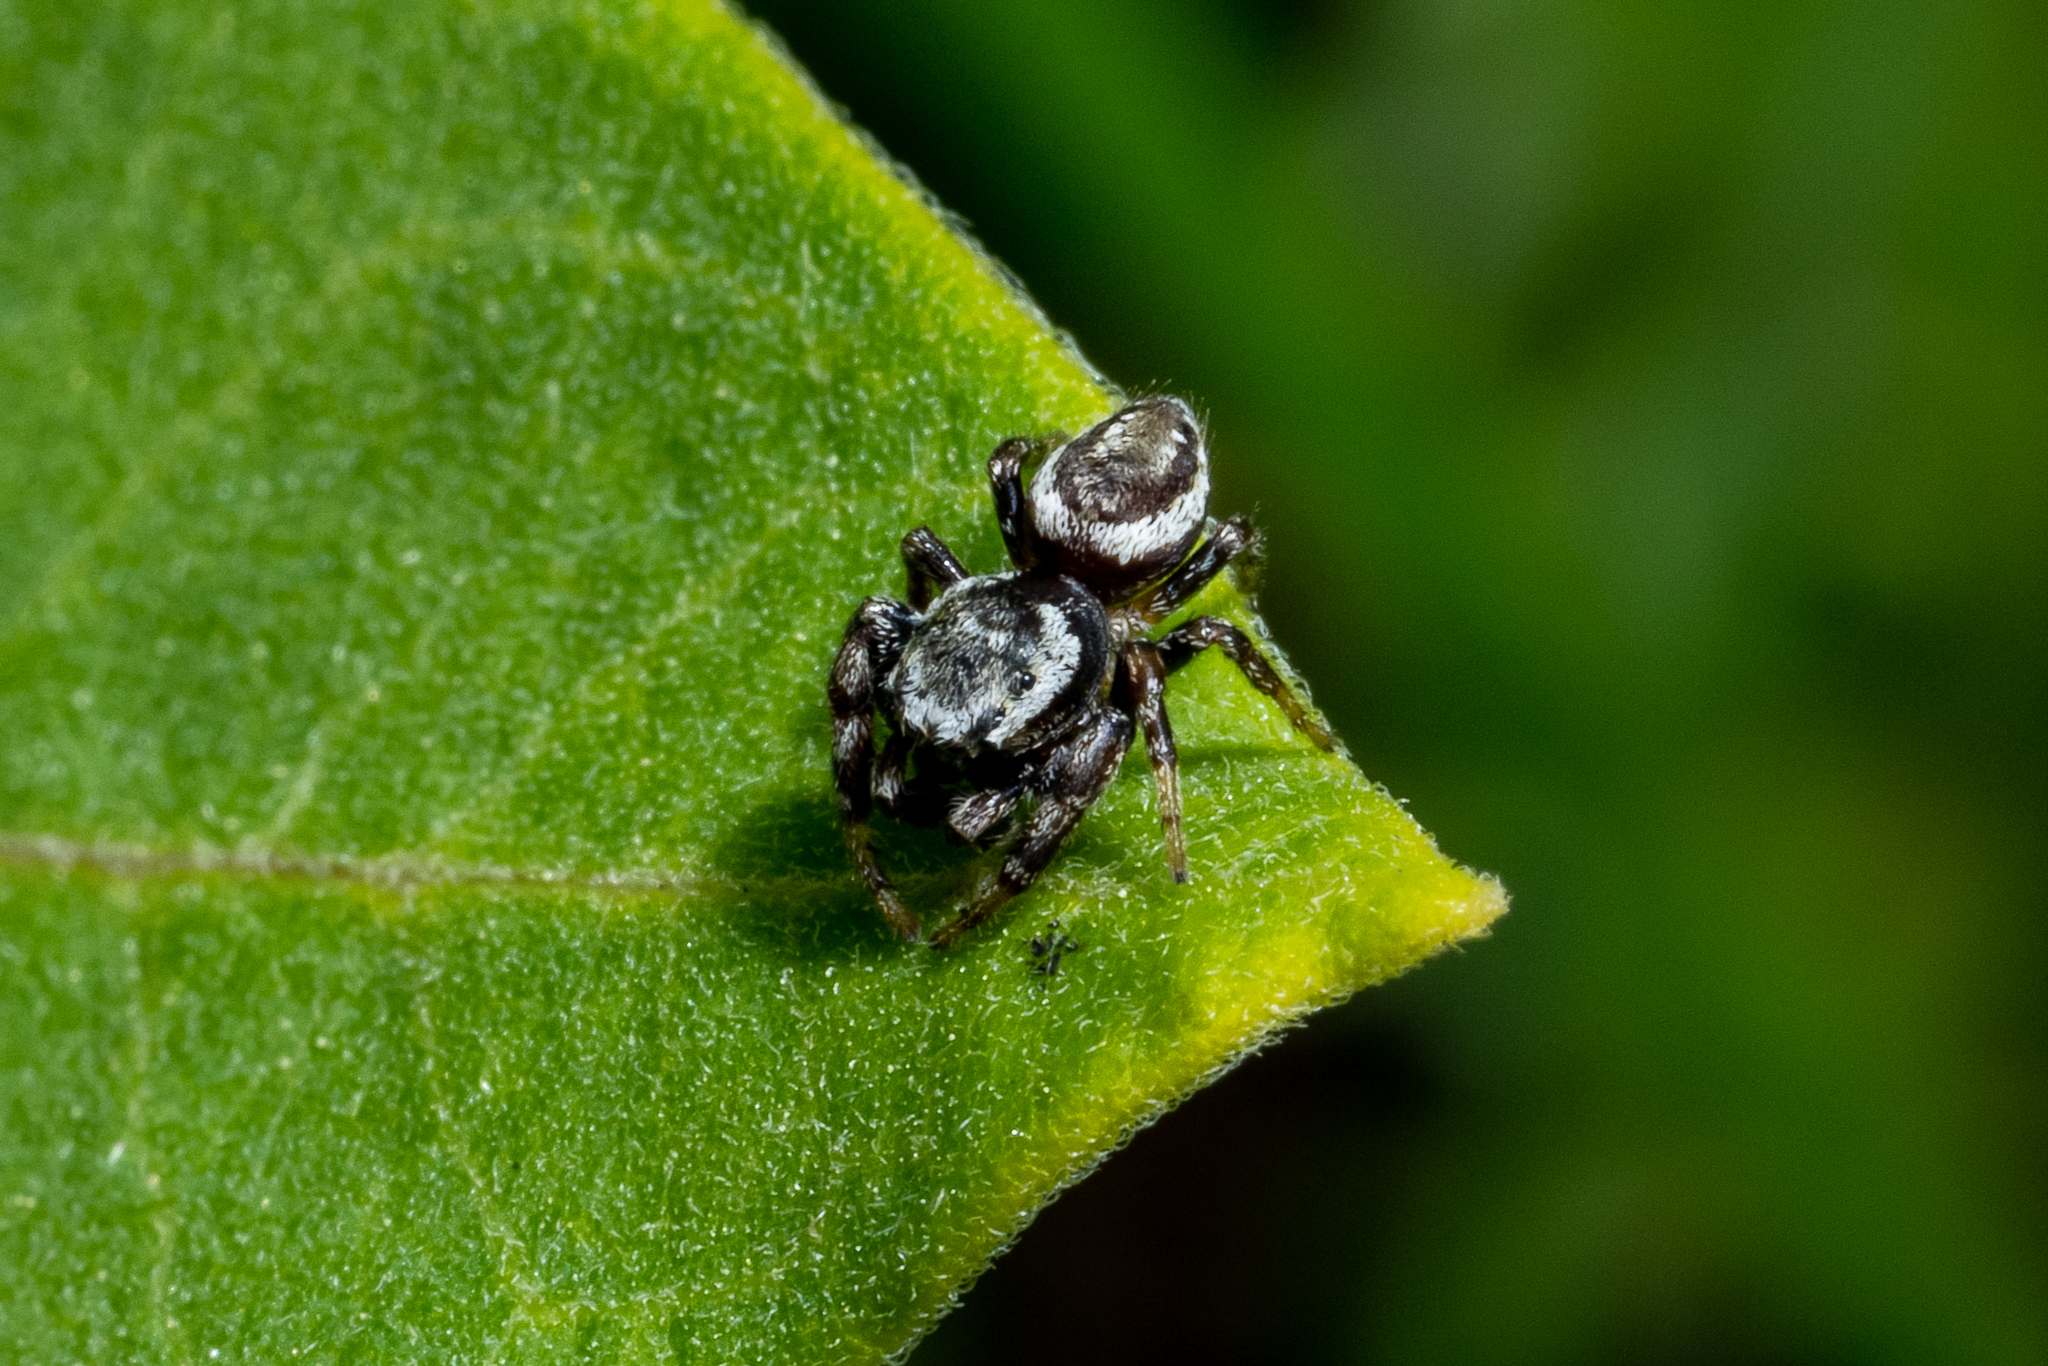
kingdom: Animalia
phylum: Arthropoda
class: Arachnida
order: Araneae
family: Salticidae
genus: Pelegrina
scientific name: Pelegrina proterva
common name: Common white-cheeked jumping spider
